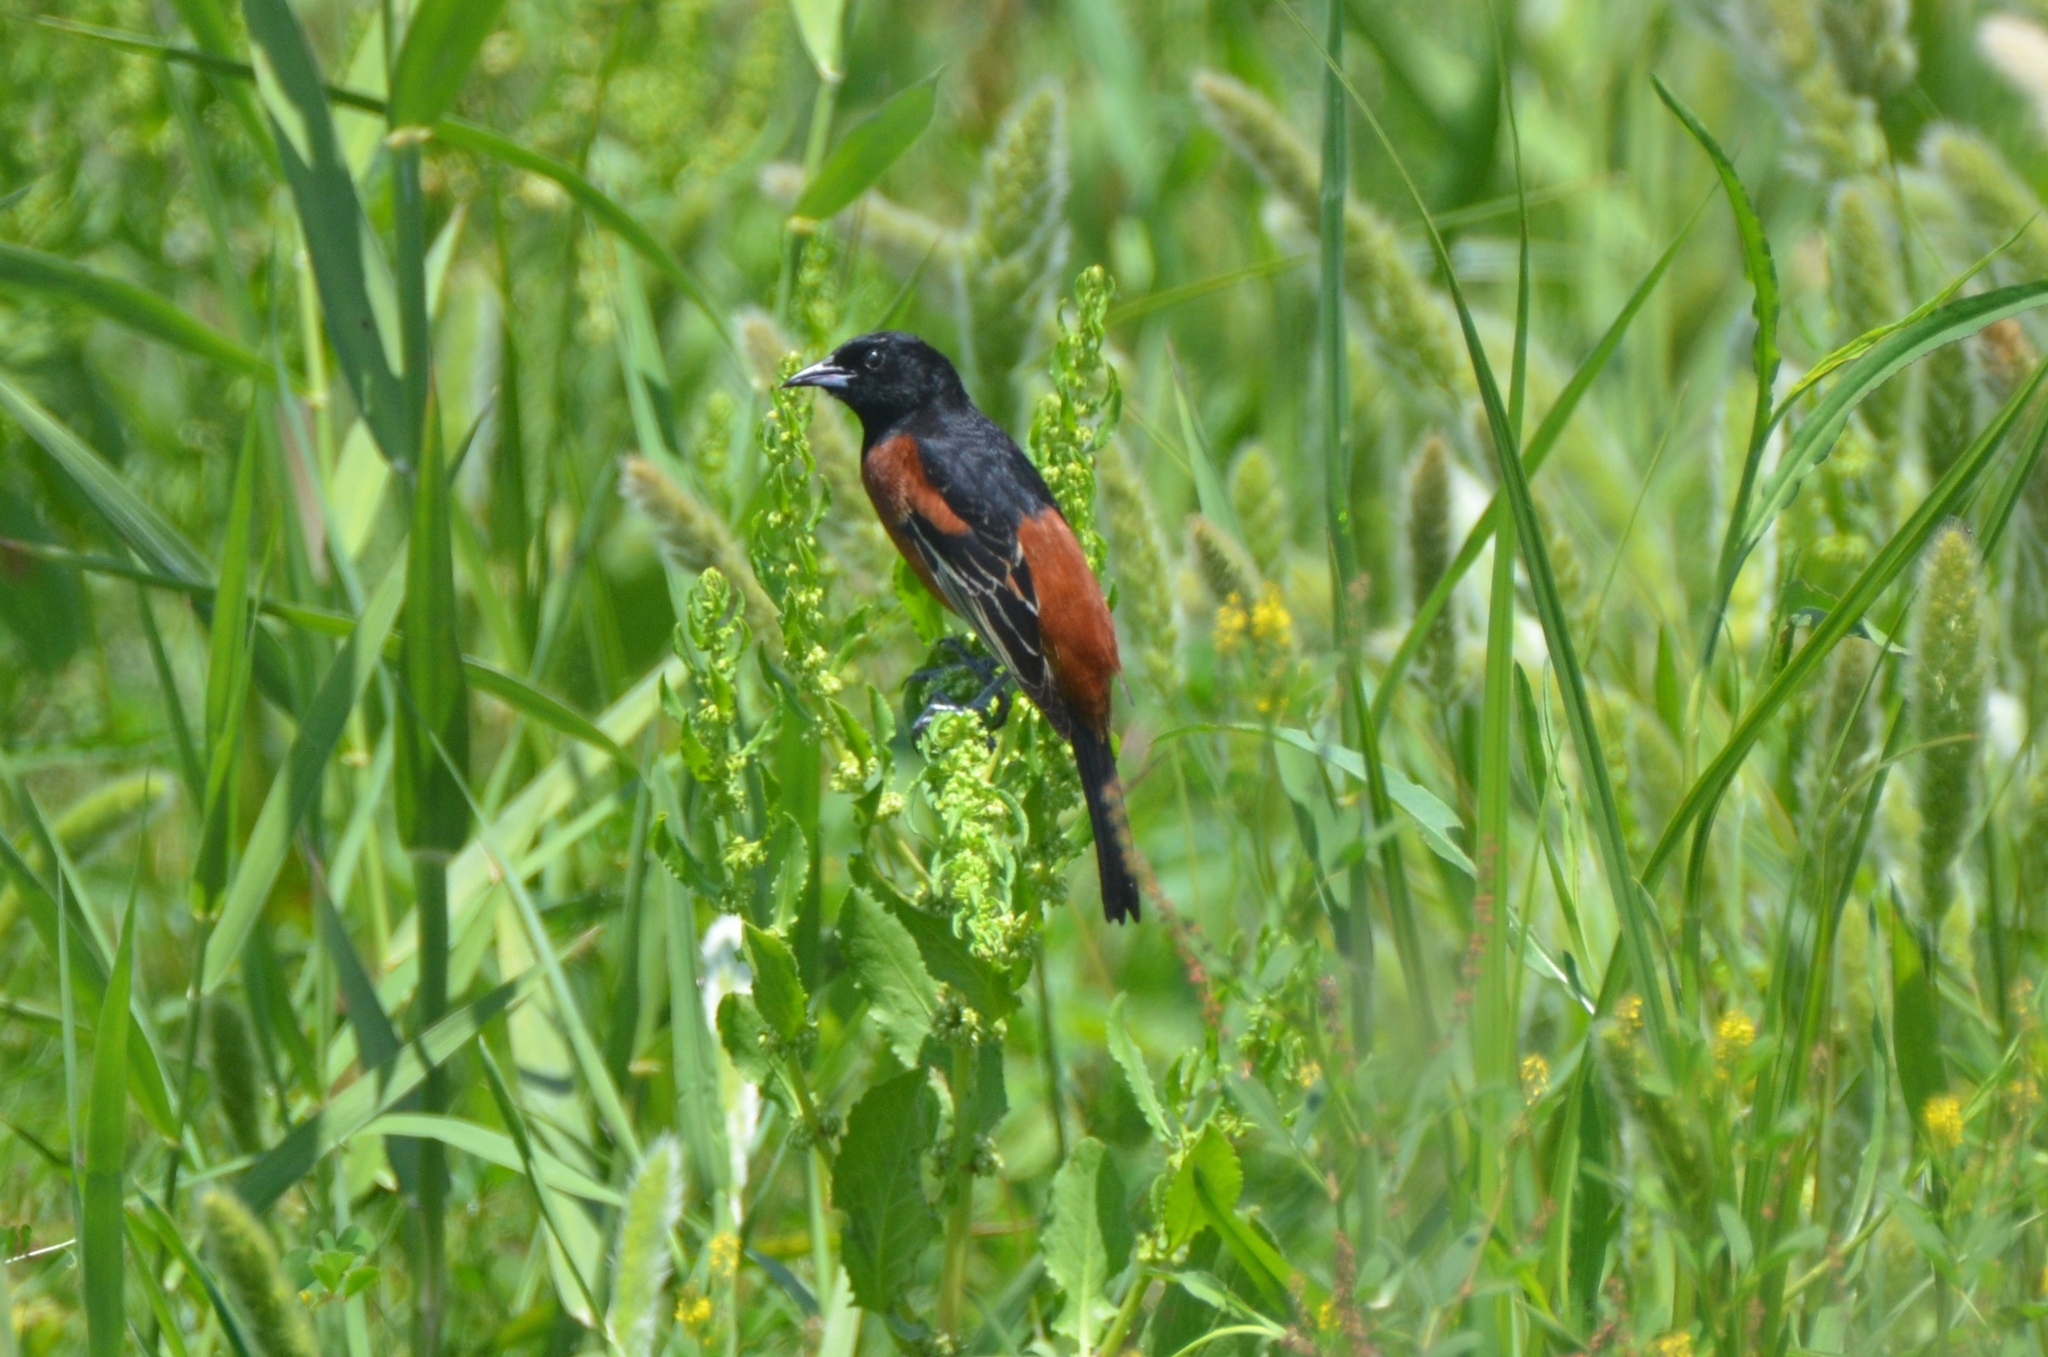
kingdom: Animalia
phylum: Chordata
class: Aves
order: Passeriformes
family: Icteridae
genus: Icterus
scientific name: Icterus spurius
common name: Orchard oriole
